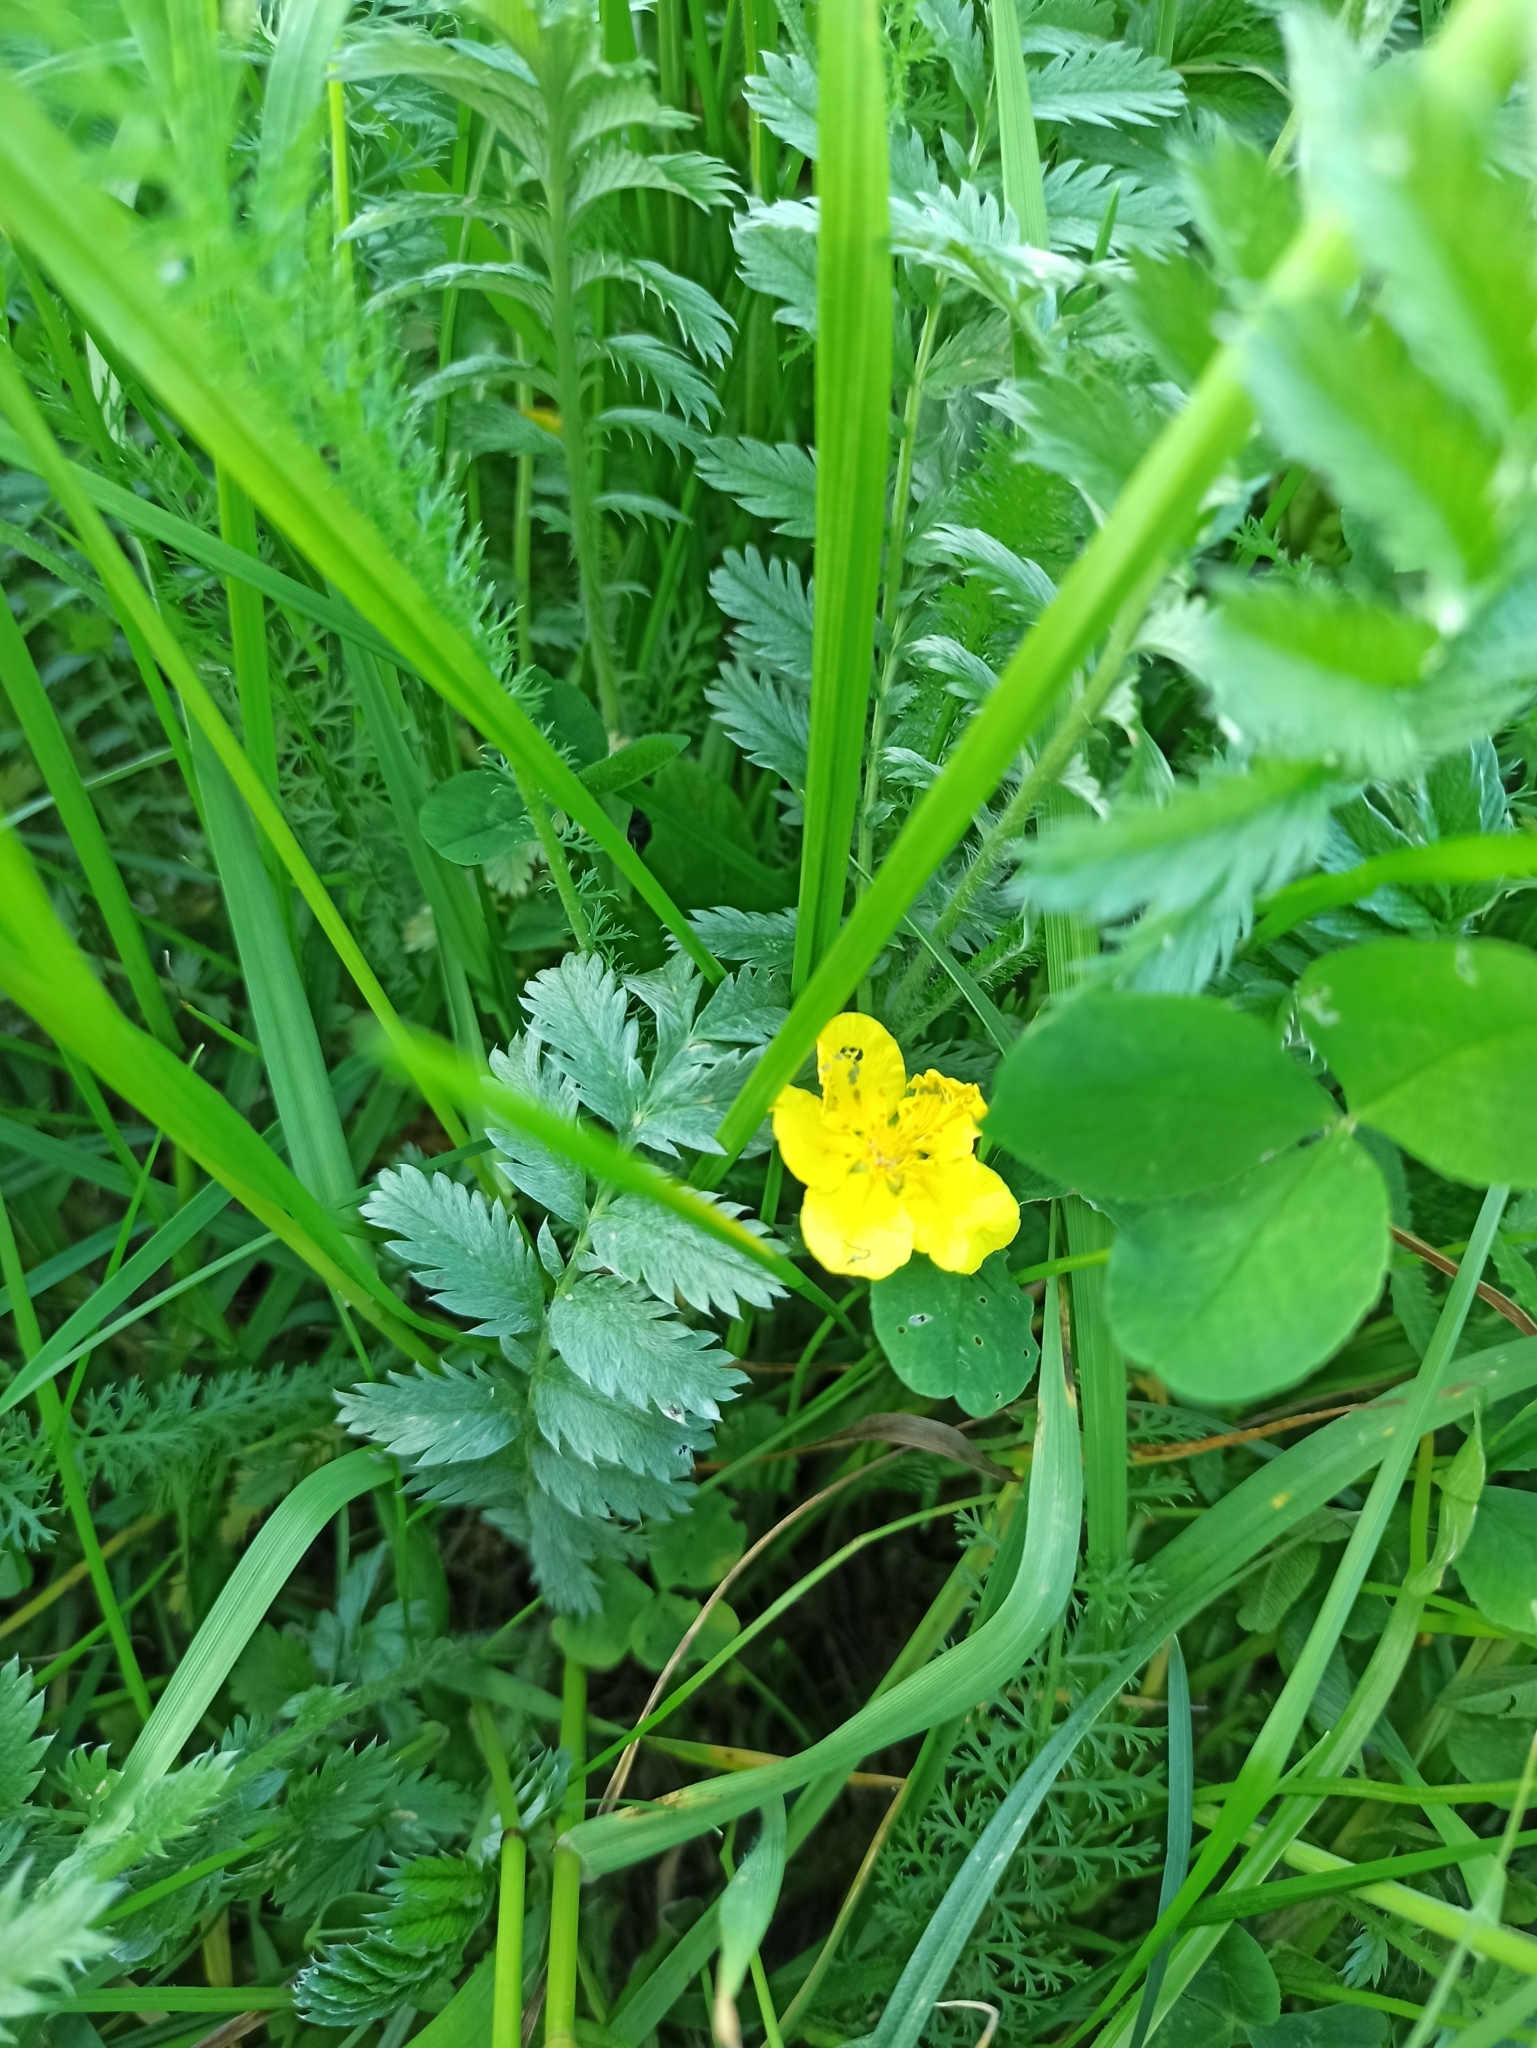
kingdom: Plantae
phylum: Tracheophyta
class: Magnoliopsida
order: Rosales
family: Rosaceae
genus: Argentina
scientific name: Argentina anserina
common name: Common silverweed
